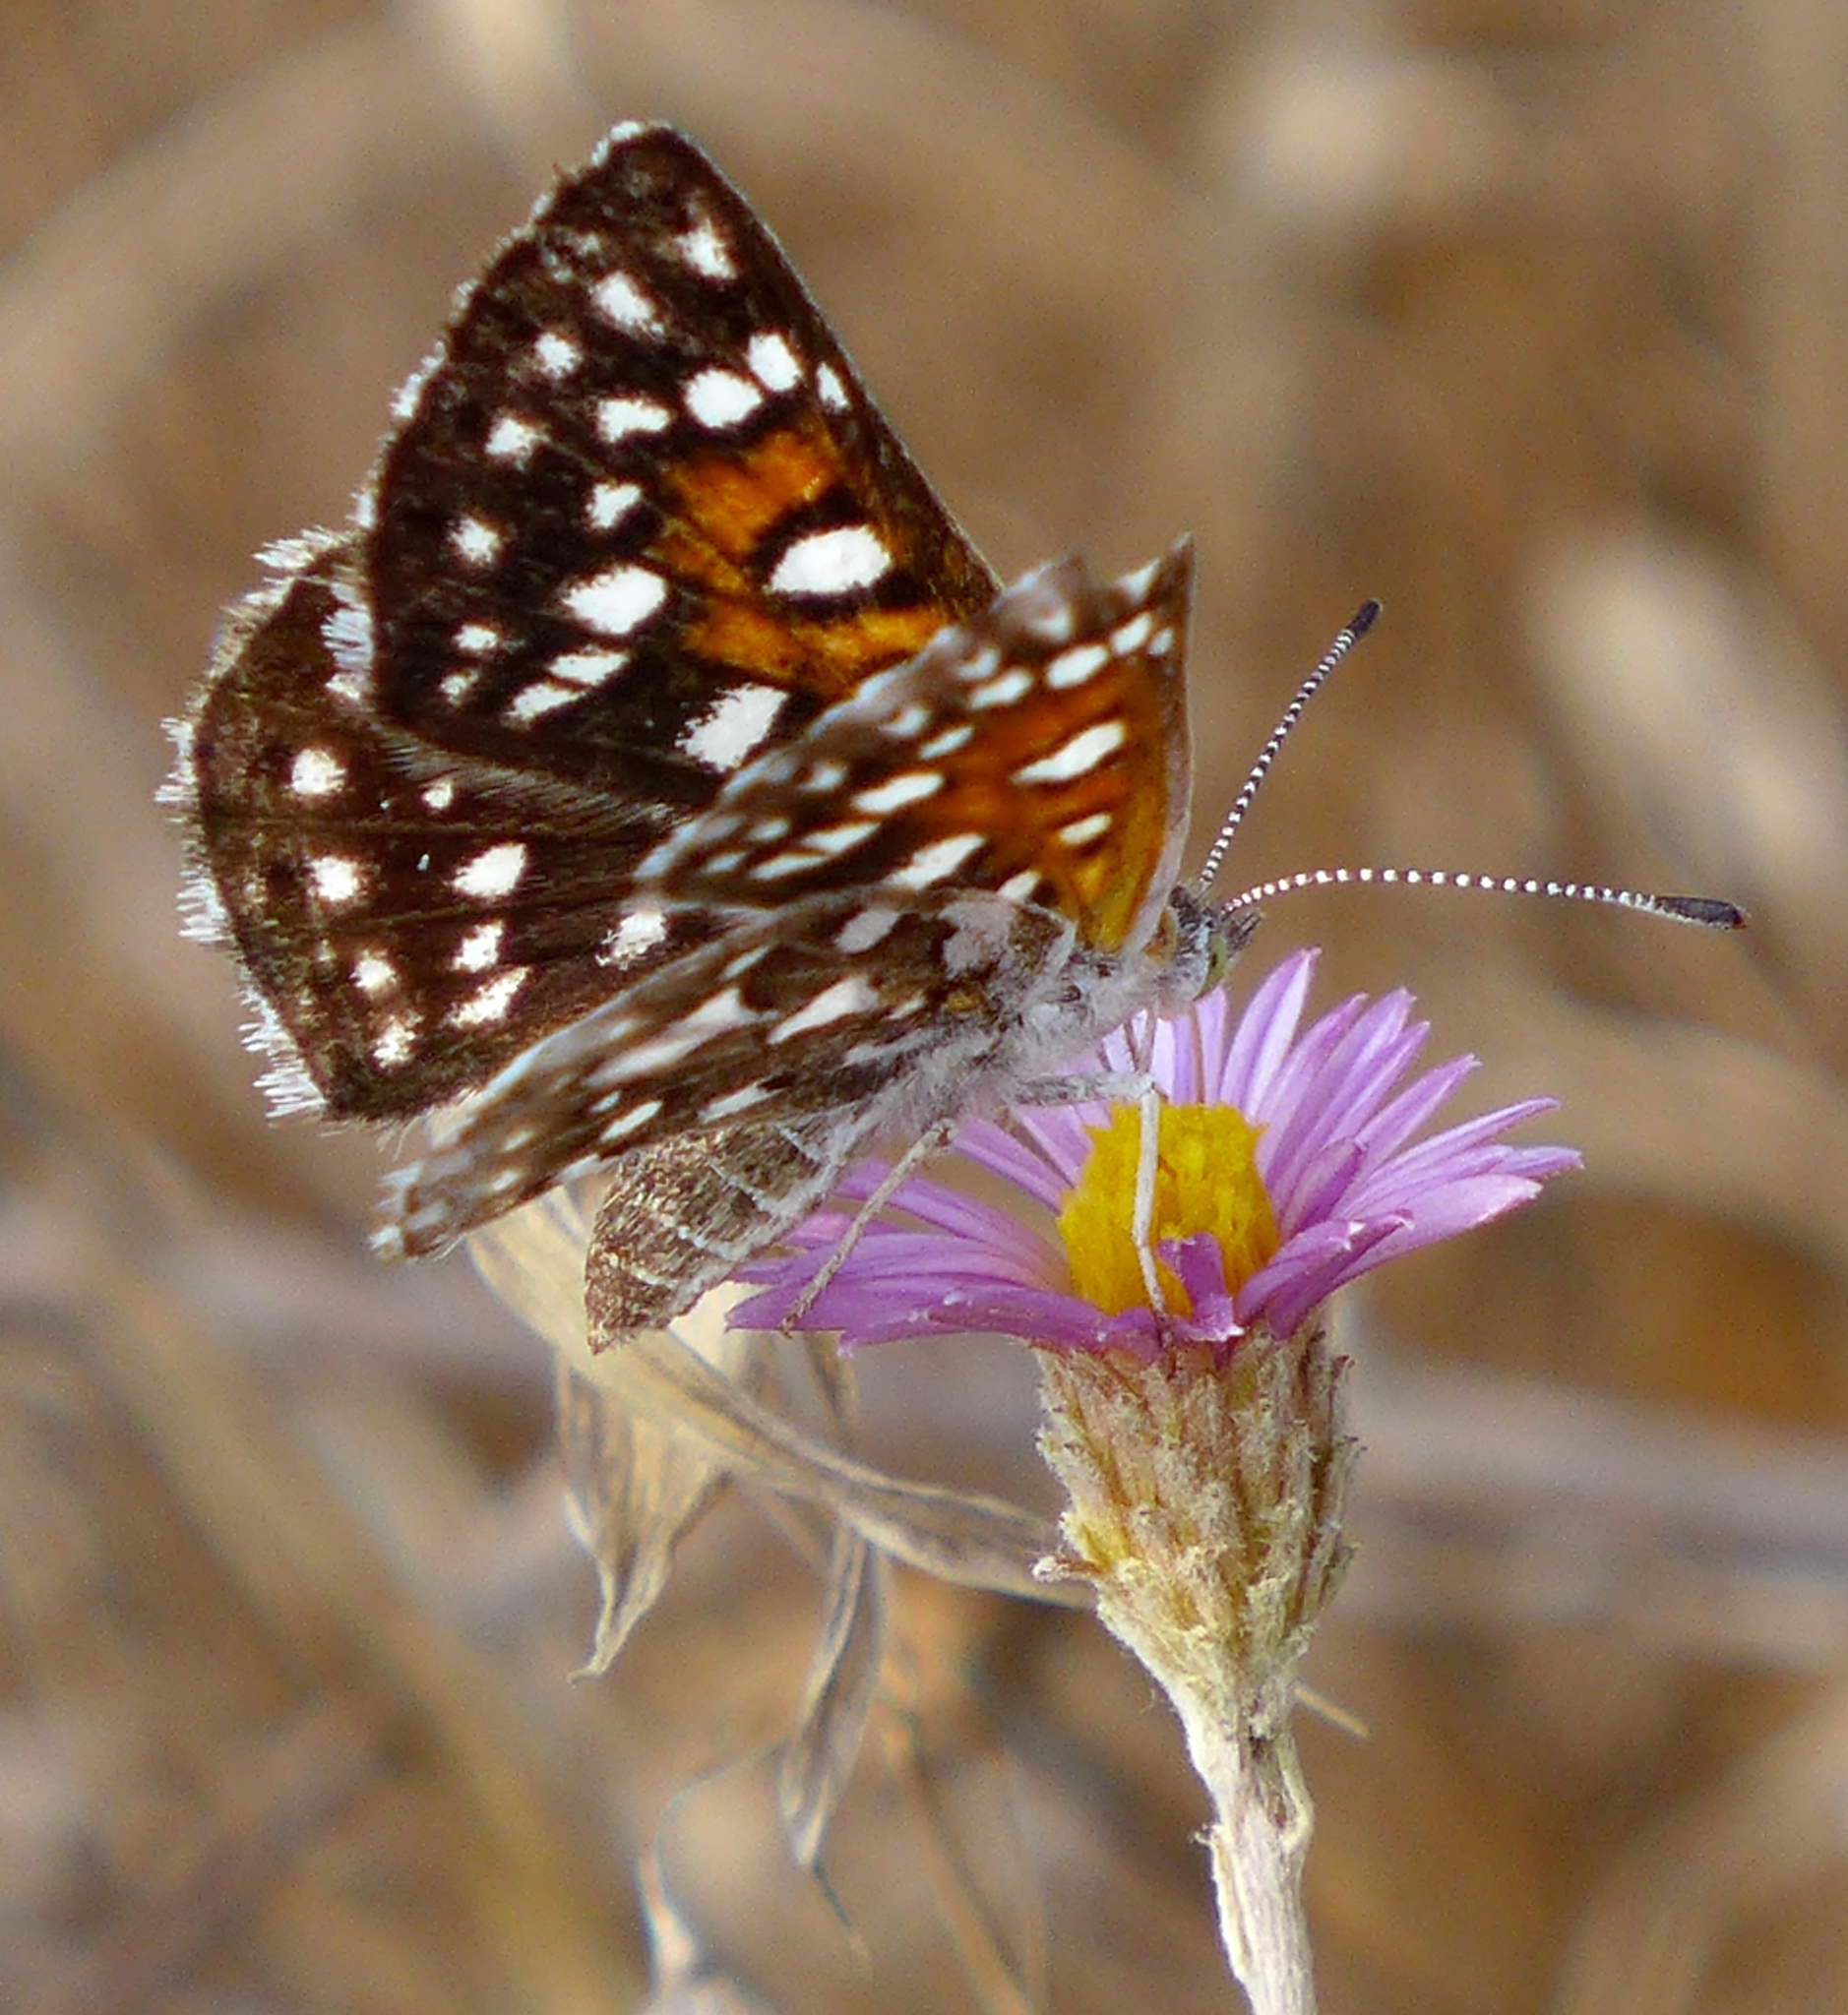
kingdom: Animalia
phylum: Arthropoda
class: Insecta
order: Lepidoptera
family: Riodinidae
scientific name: Riodinidae
